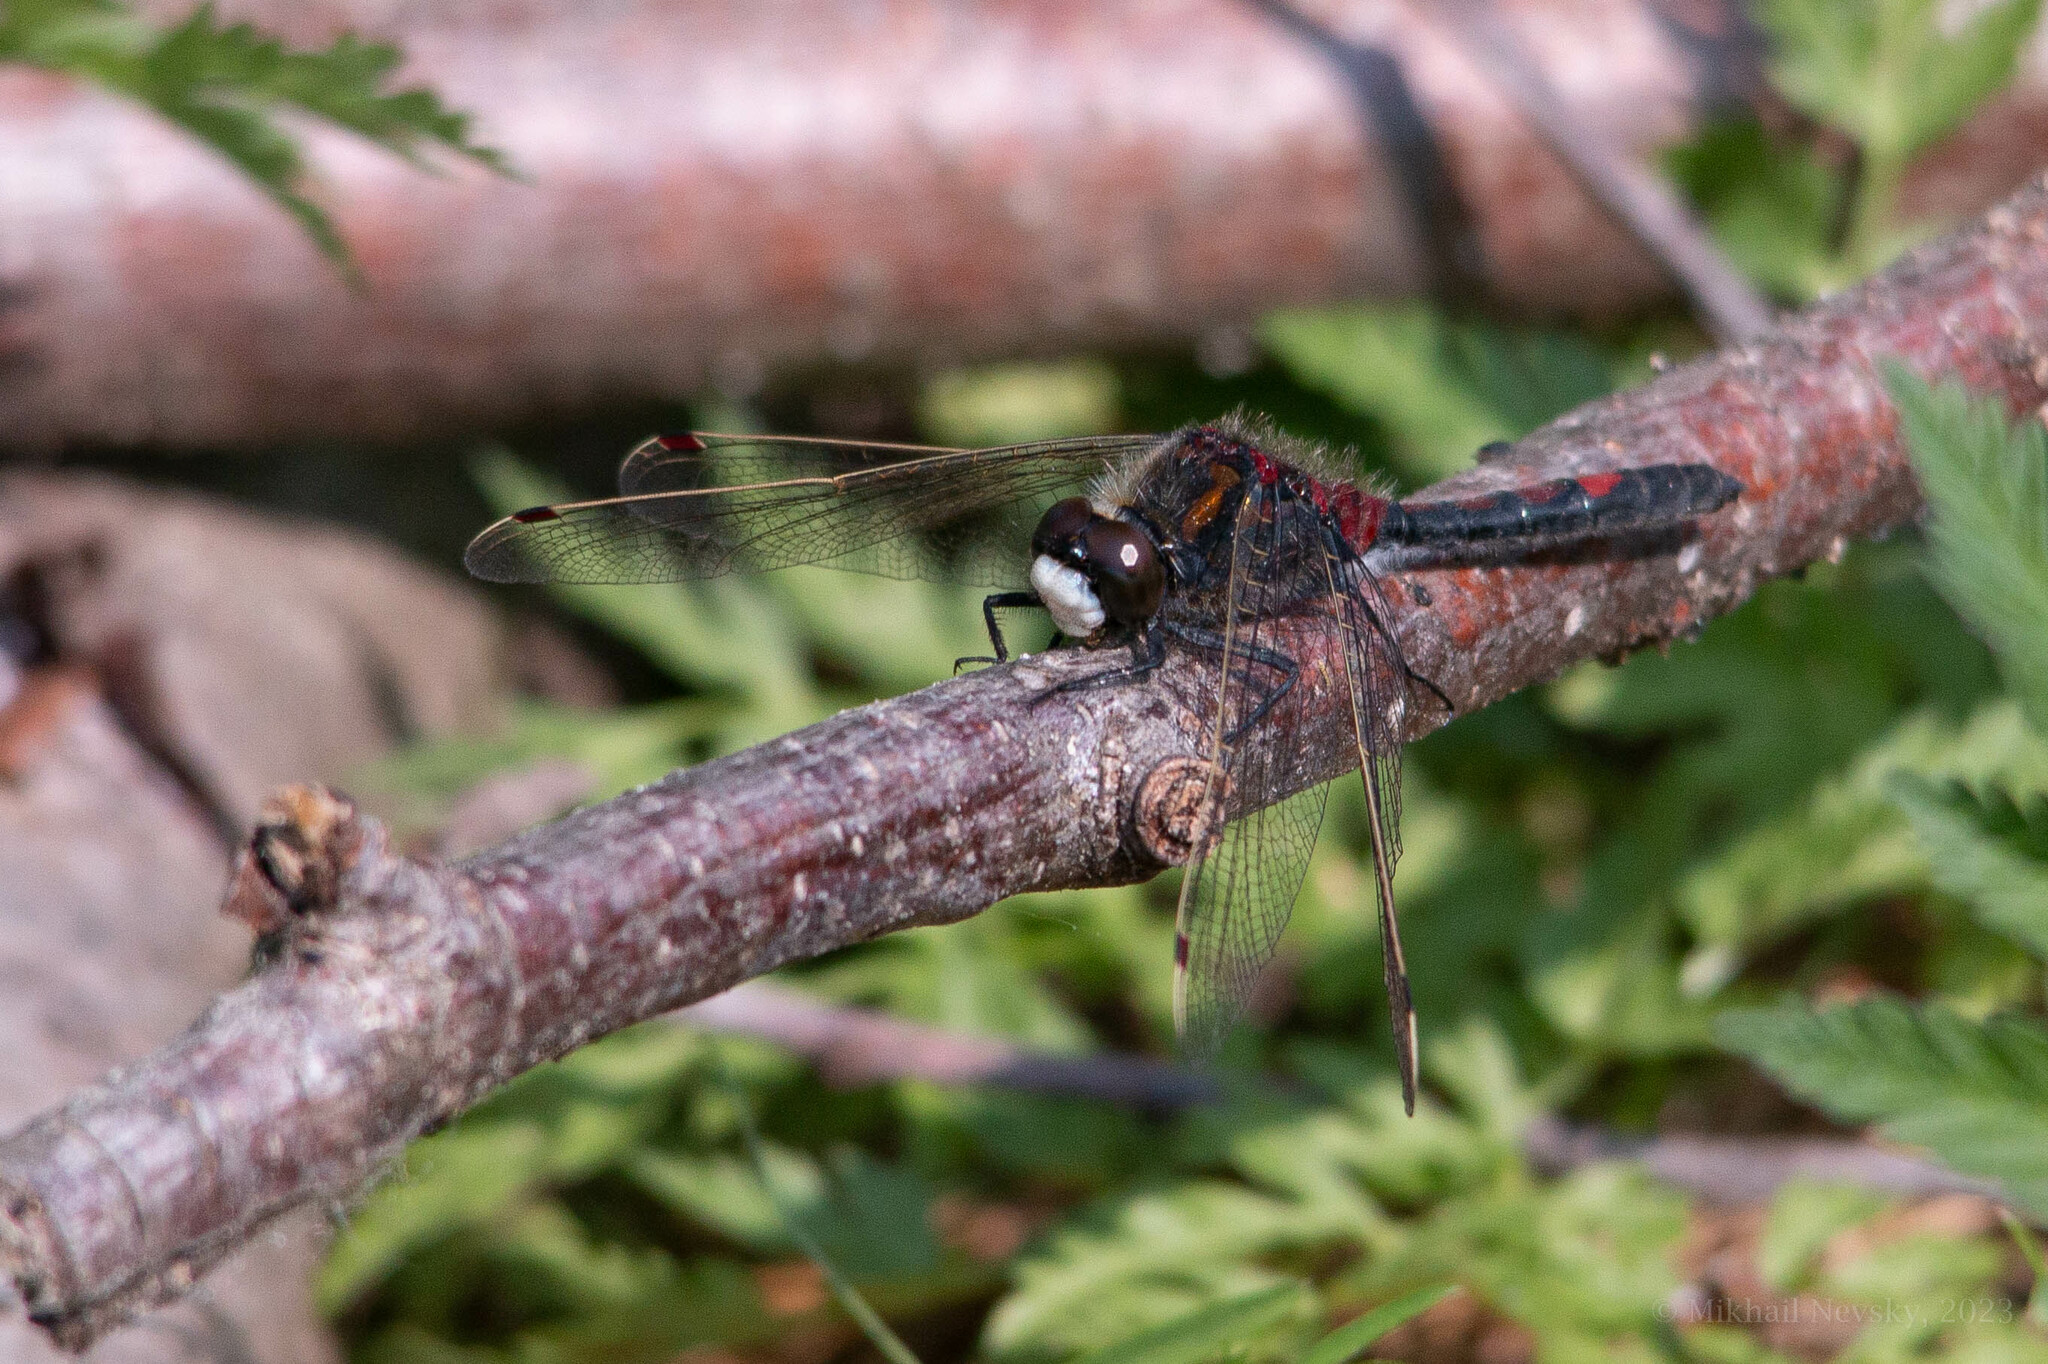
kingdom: Animalia
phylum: Arthropoda
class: Insecta
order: Odonata
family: Libellulidae
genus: Leucorrhinia
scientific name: Leucorrhinia rubicunda
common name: Ruby whiteface
